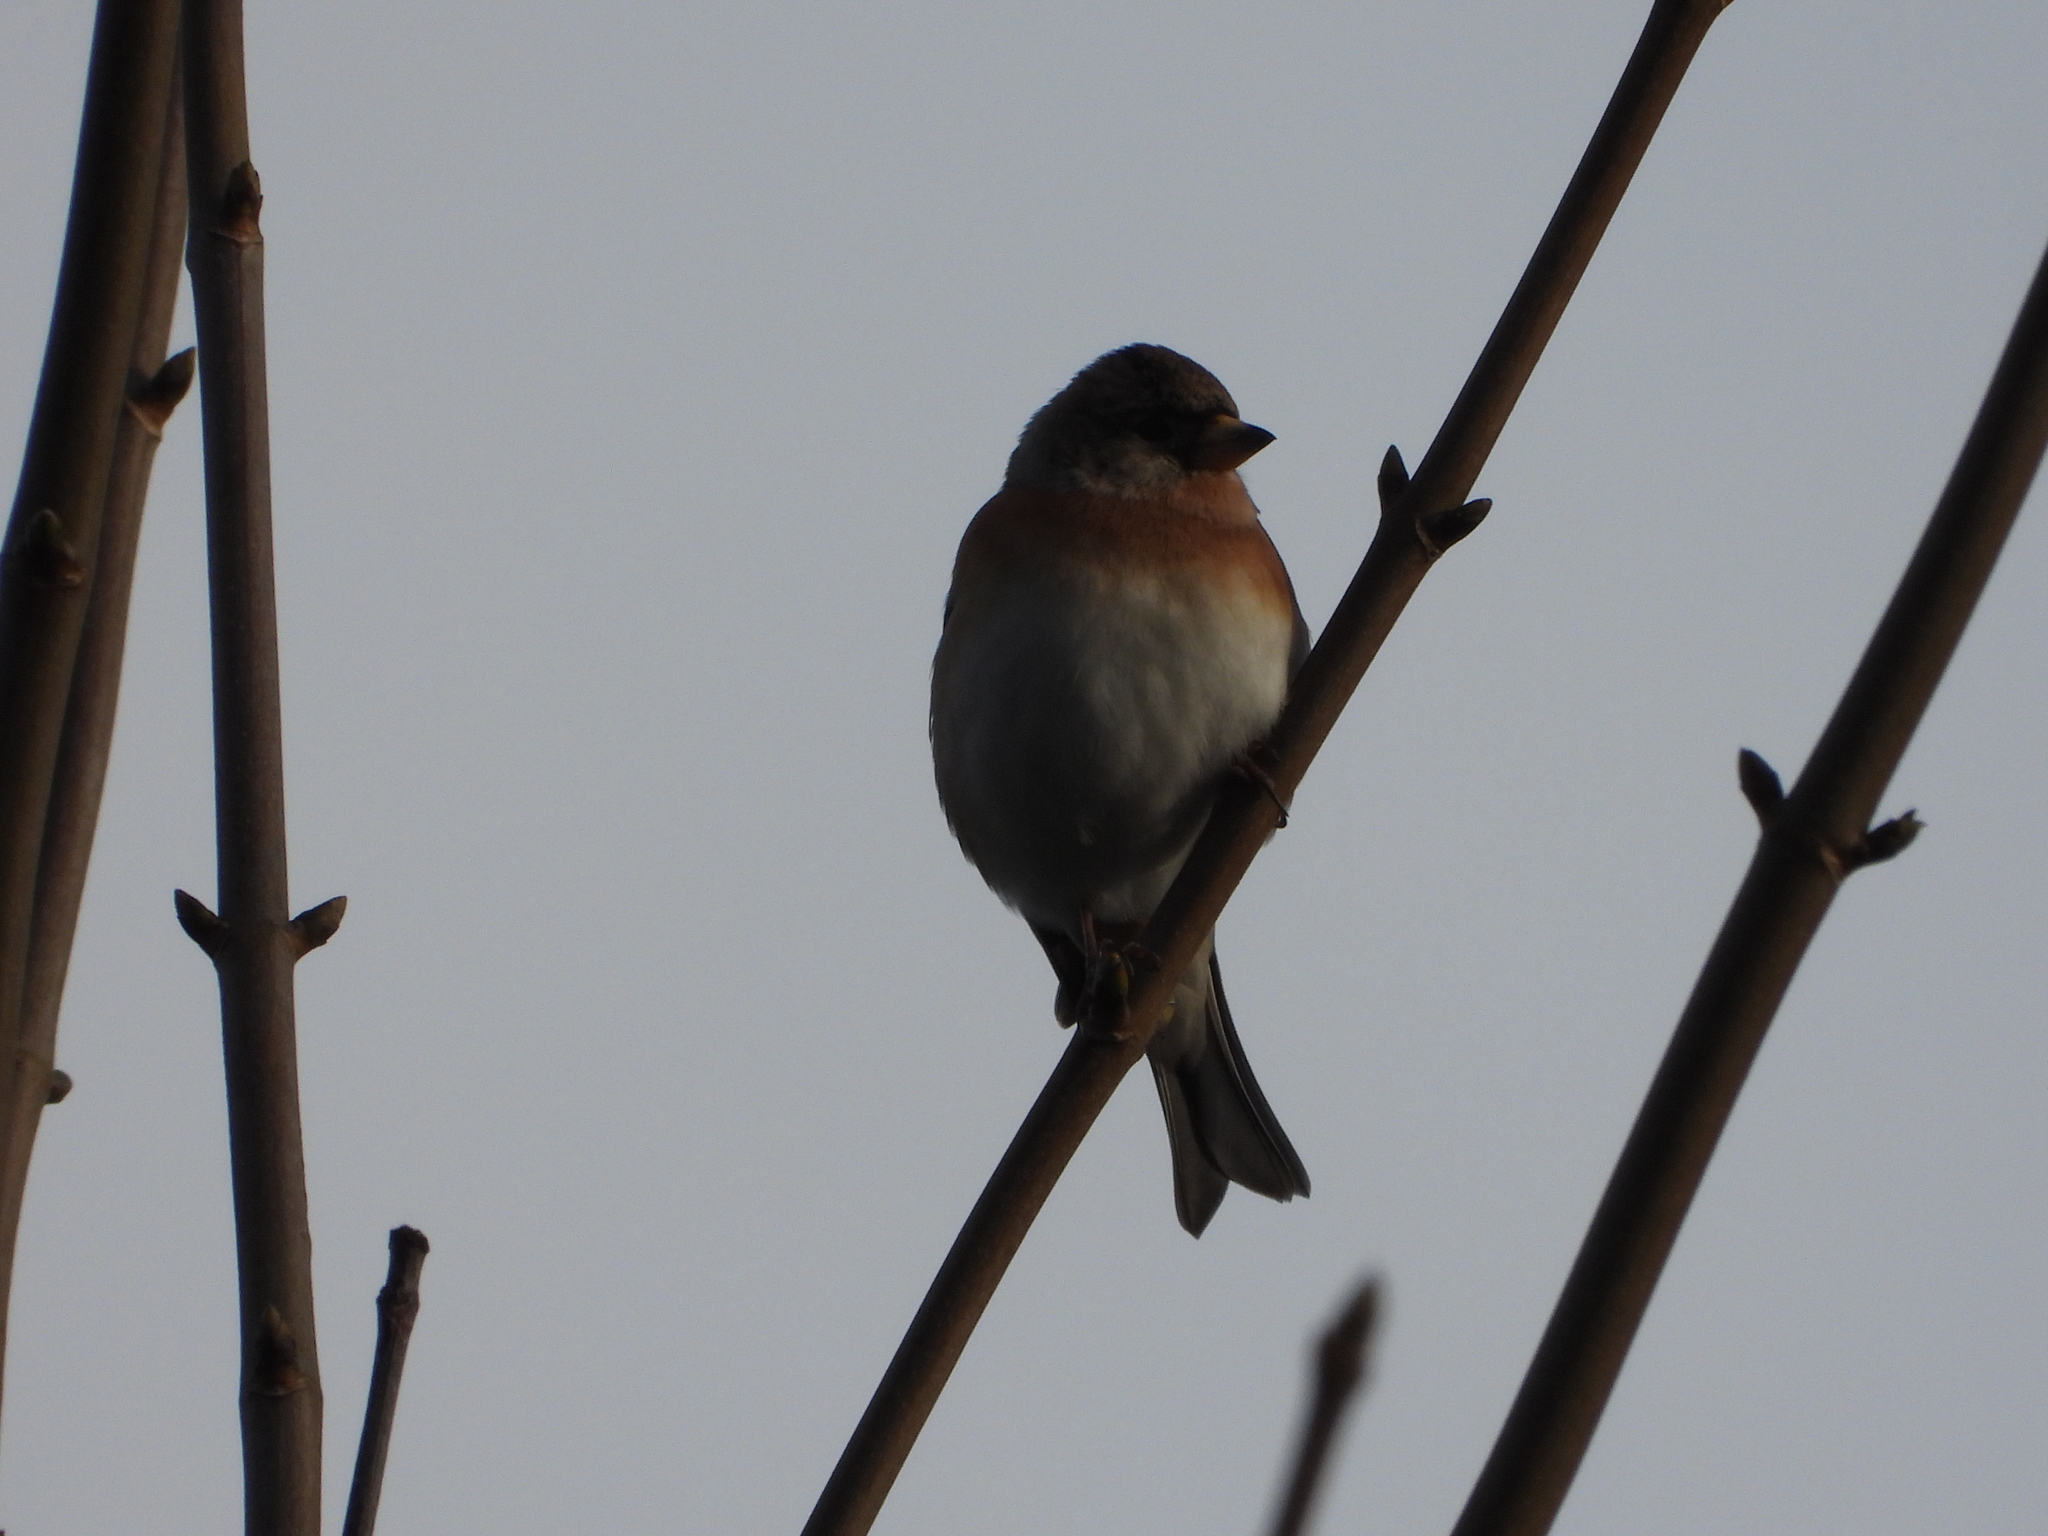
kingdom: Animalia
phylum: Chordata
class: Aves
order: Passeriformes
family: Fringillidae
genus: Fringilla
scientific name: Fringilla montifringilla
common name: Brambling
